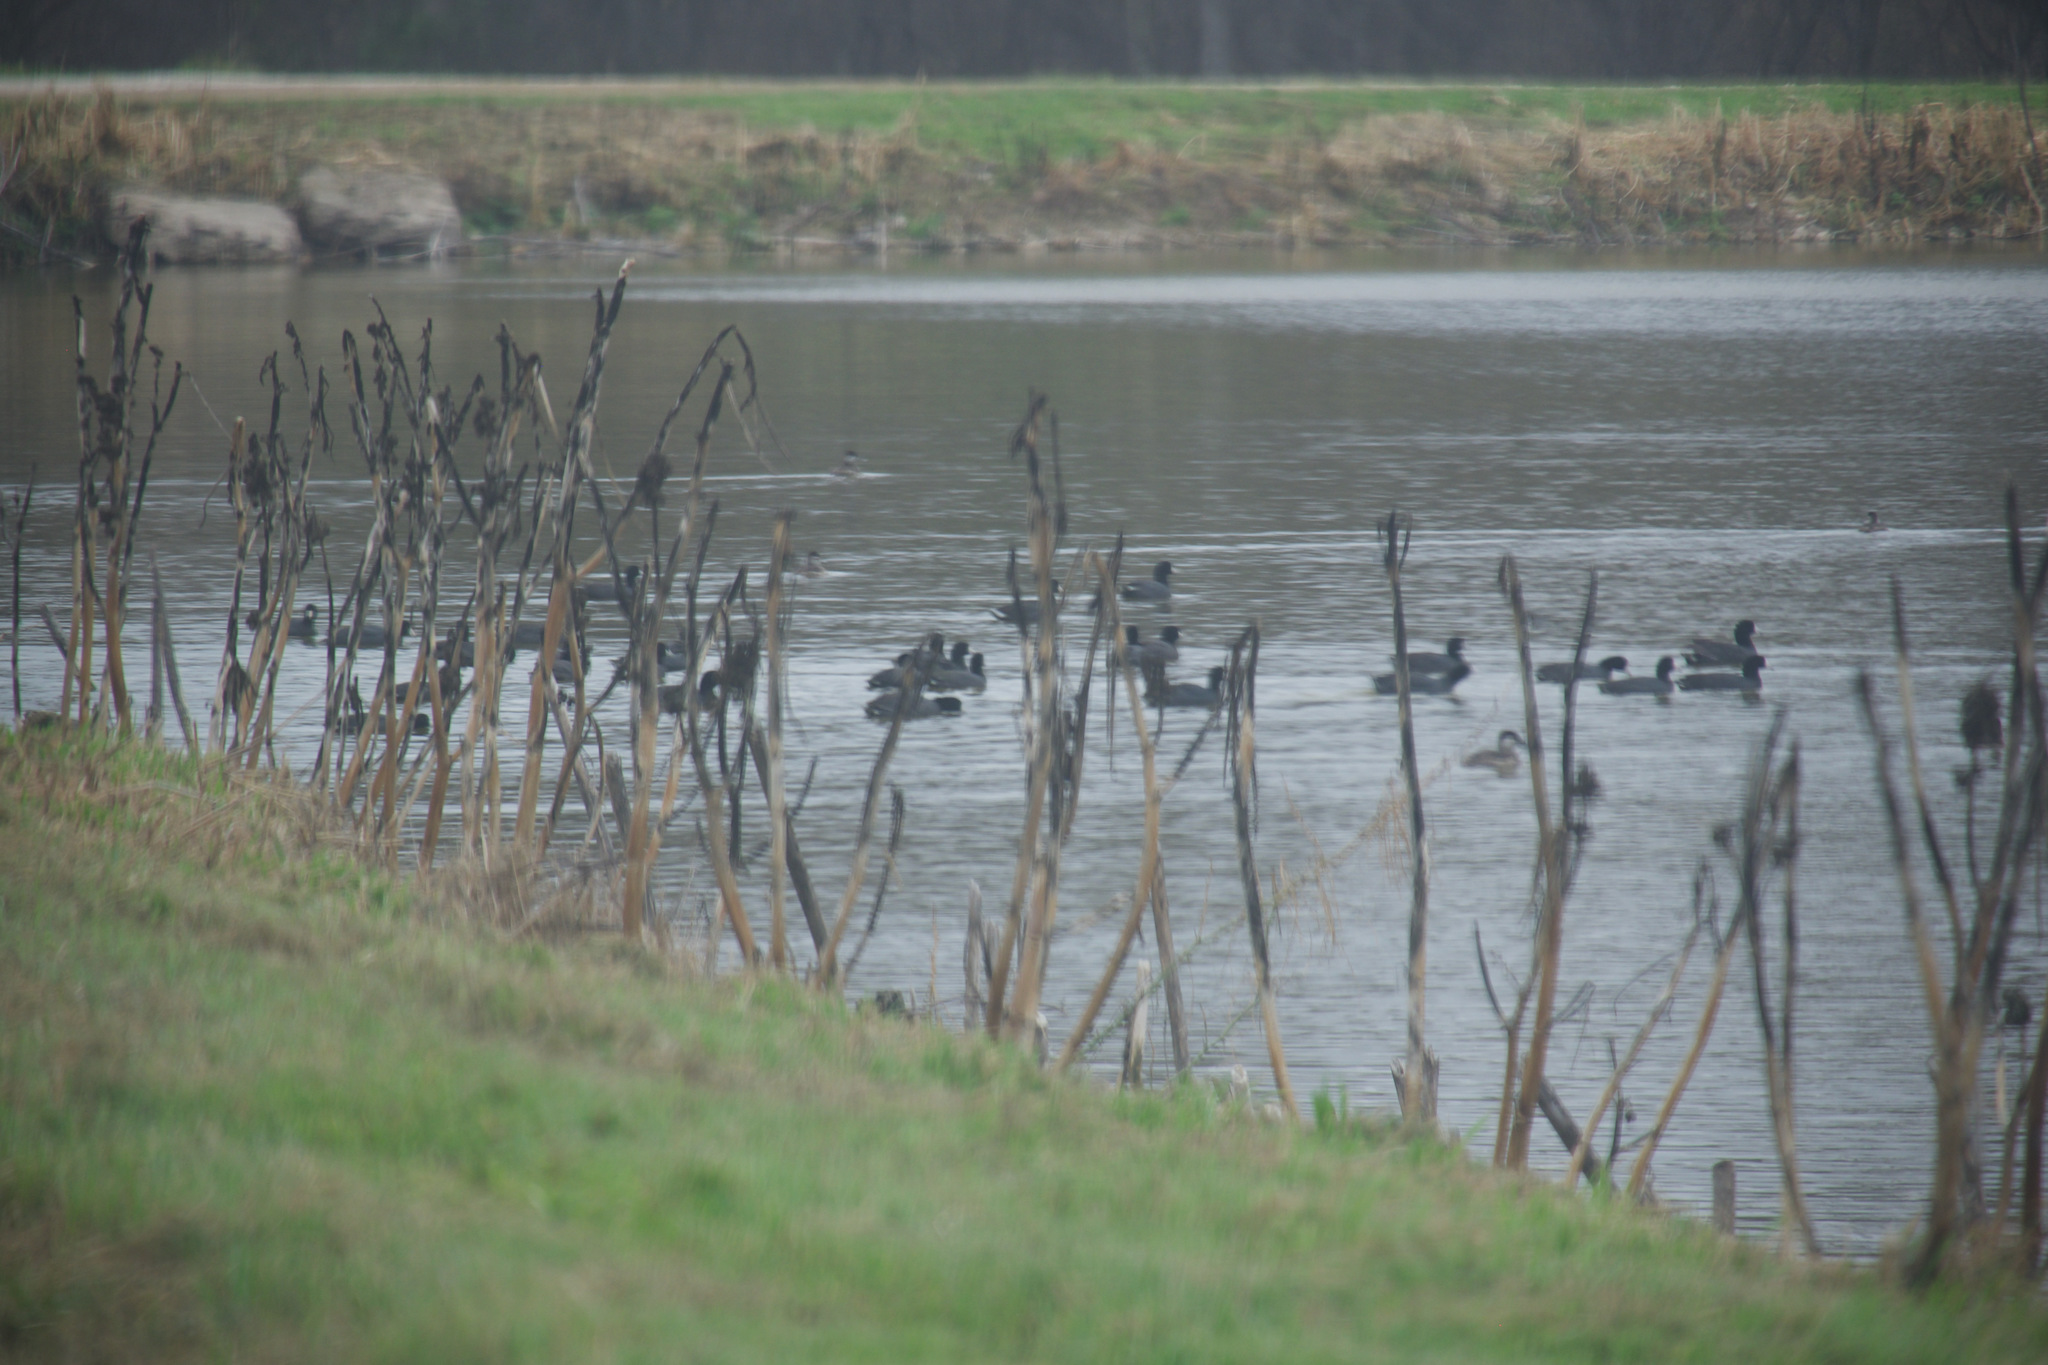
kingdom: Animalia
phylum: Chordata
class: Aves
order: Gruiformes
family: Rallidae
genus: Fulica
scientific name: Fulica americana
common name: American coot
